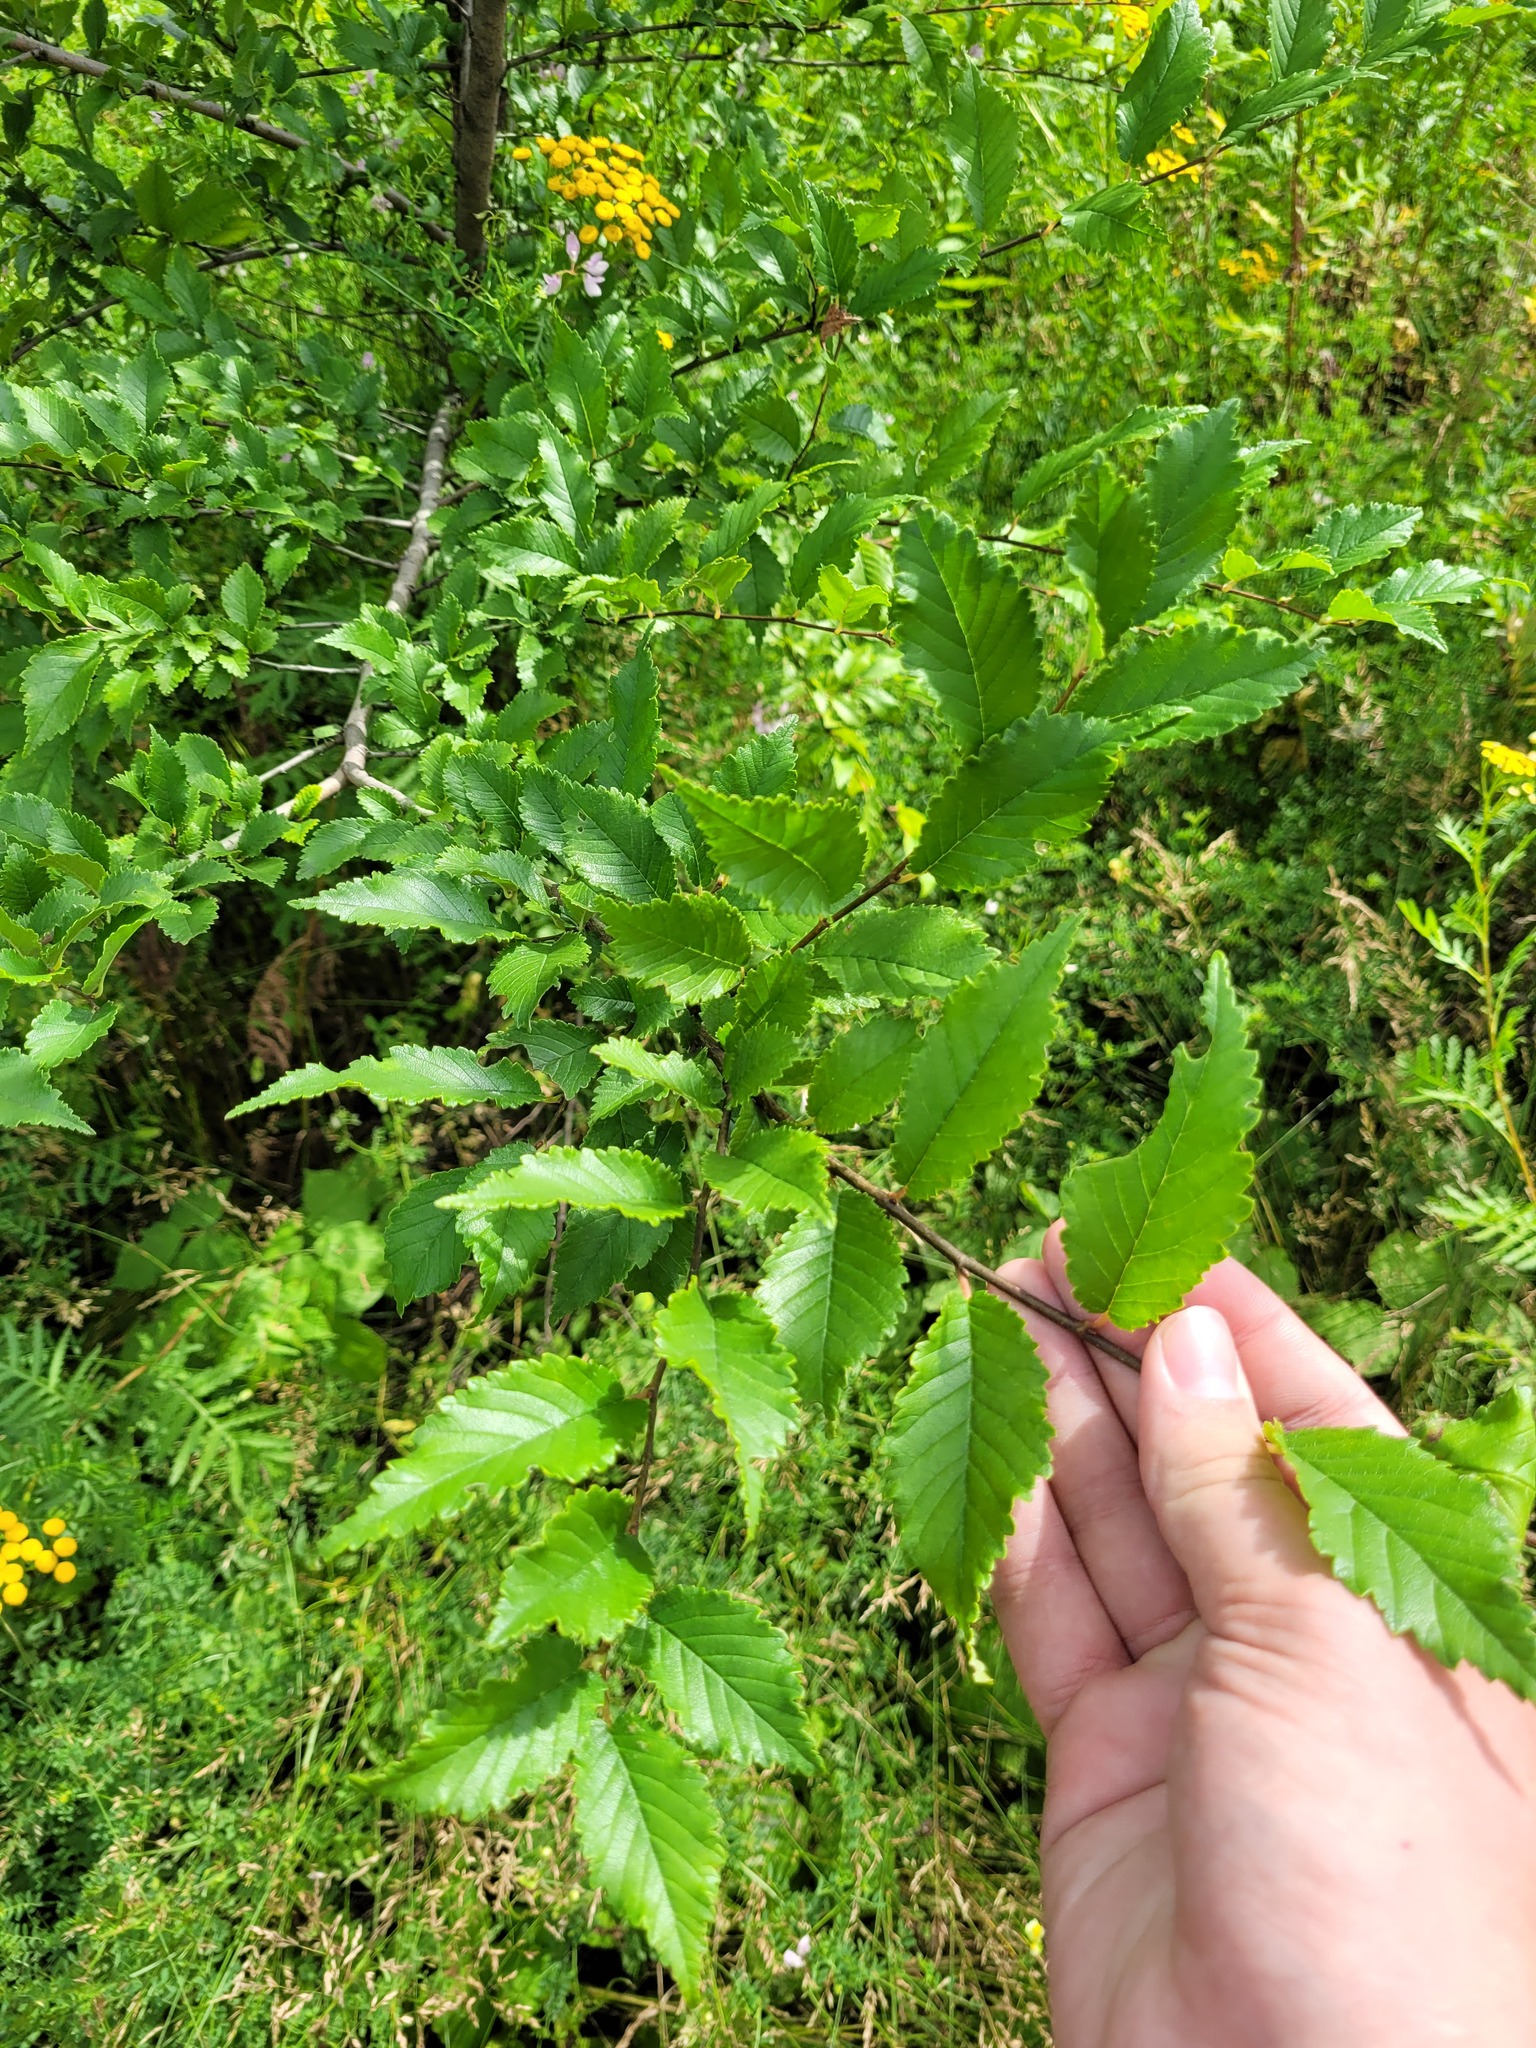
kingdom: Plantae
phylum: Tracheophyta
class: Magnoliopsida
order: Rosales
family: Ulmaceae
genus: Ulmus
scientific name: Ulmus pumila
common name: Siberian elm
